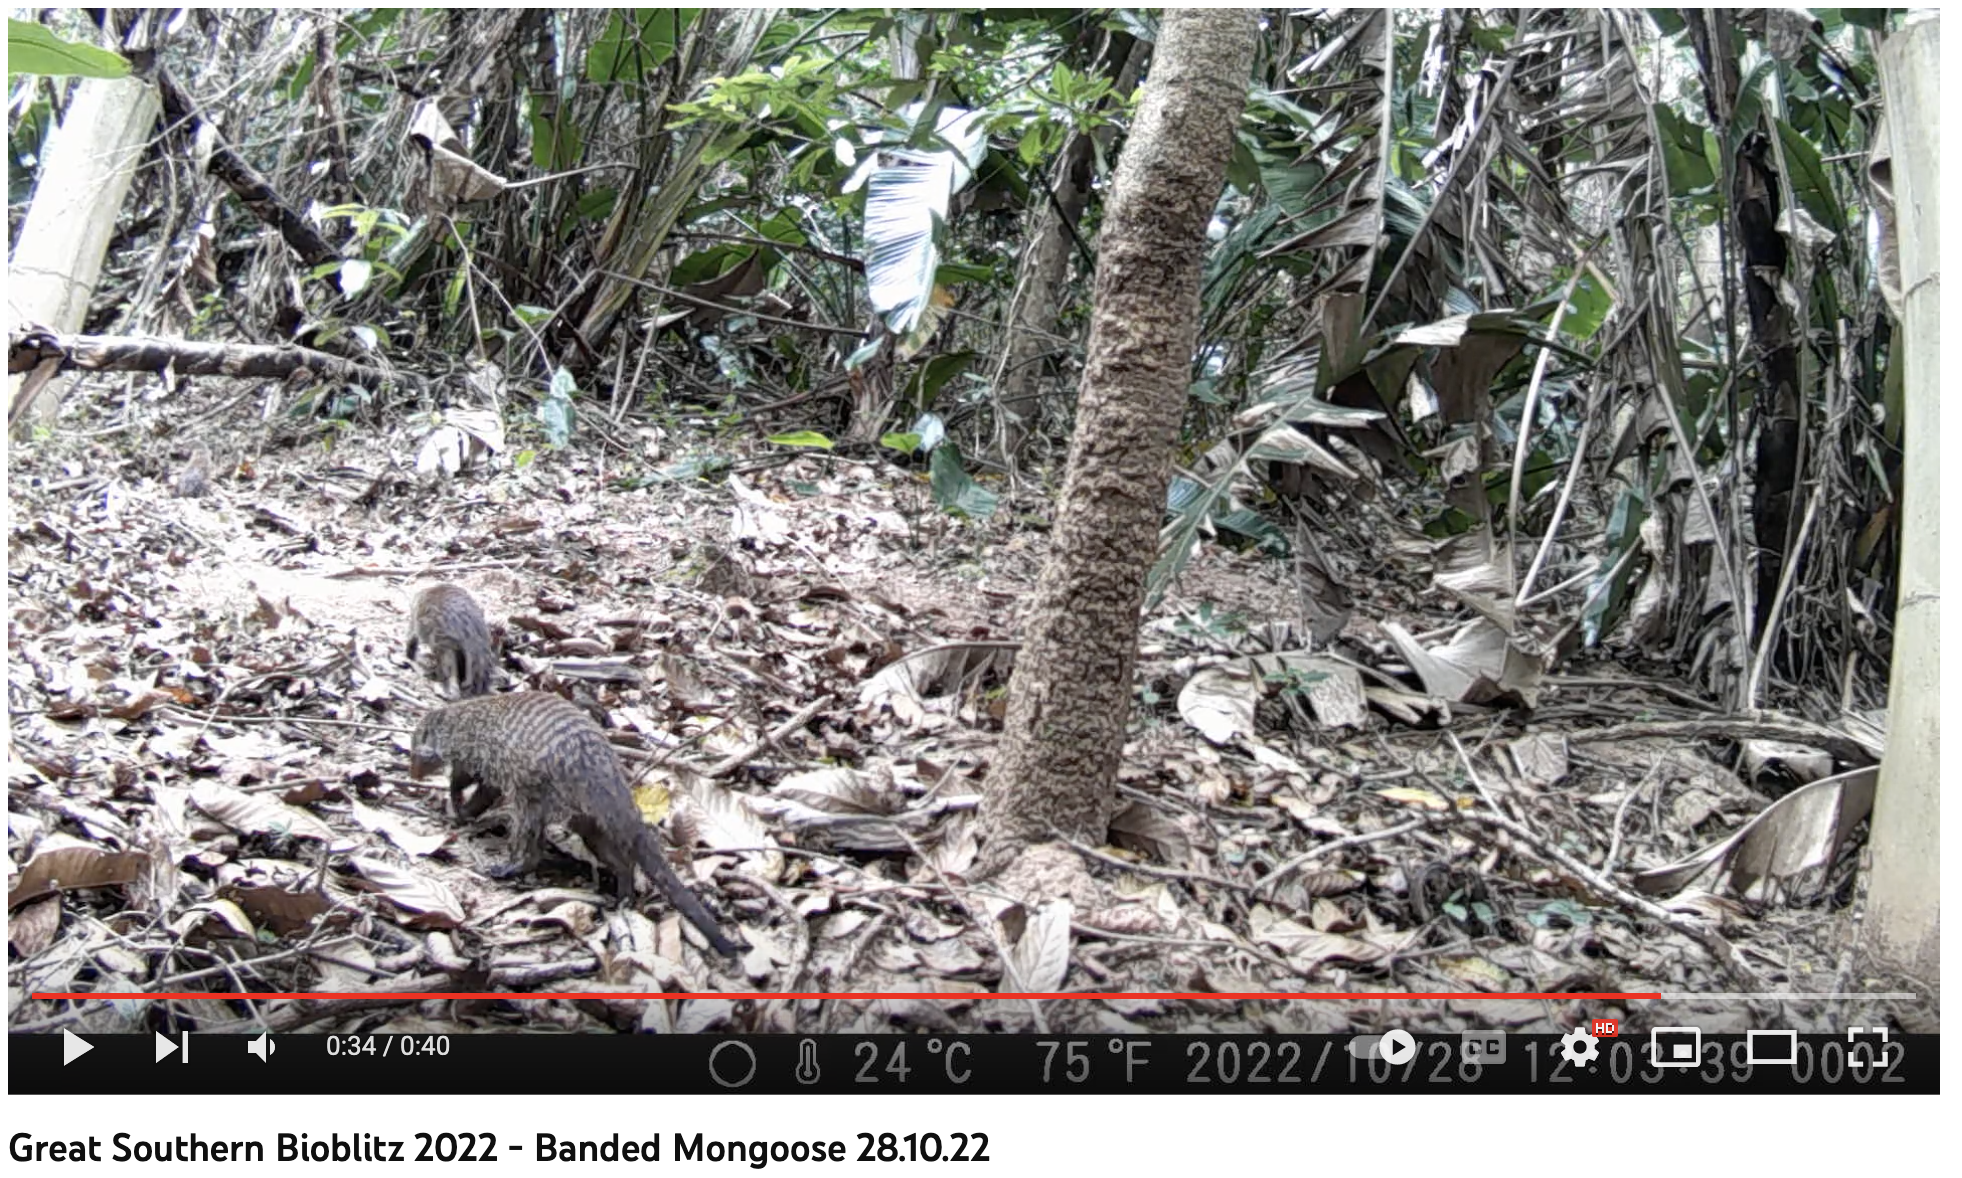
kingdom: Animalia
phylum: Chordata
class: Mammalia
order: Carnivora
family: Herpestidae
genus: Mungos
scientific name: Mungos mungo
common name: Banded mongoose
